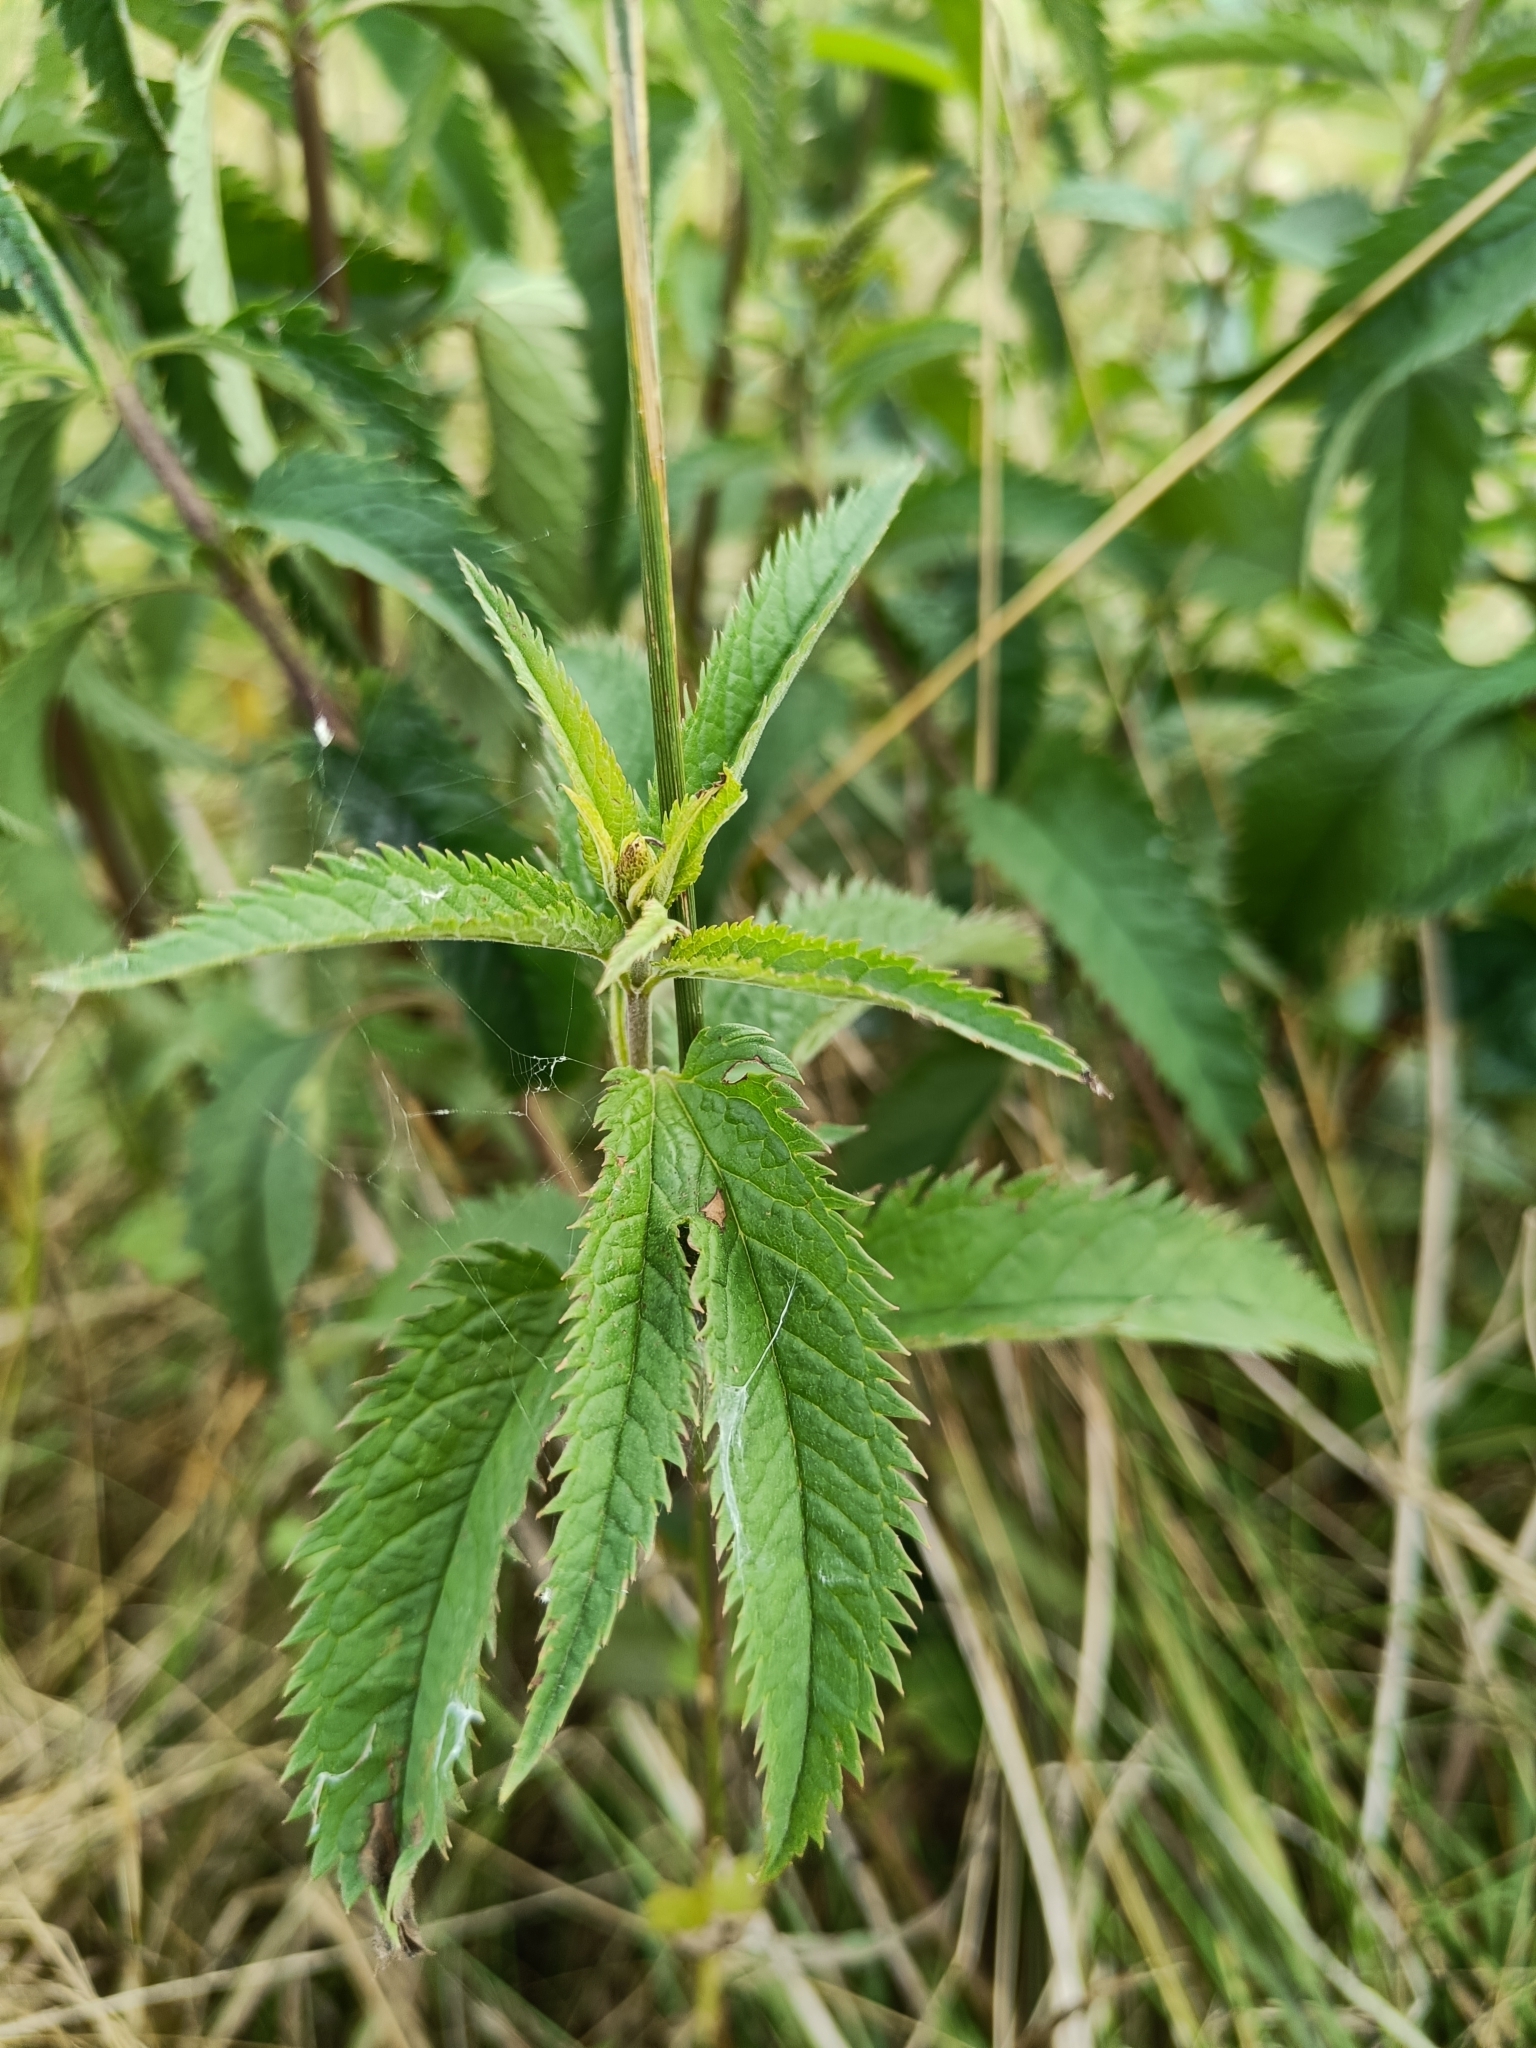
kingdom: Plantae
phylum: Tracheophyta
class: Magnoliopsida
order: Lamiales
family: Plantaginaceae
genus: Veronica
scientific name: Veronica longifolia
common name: Garden speedwell
